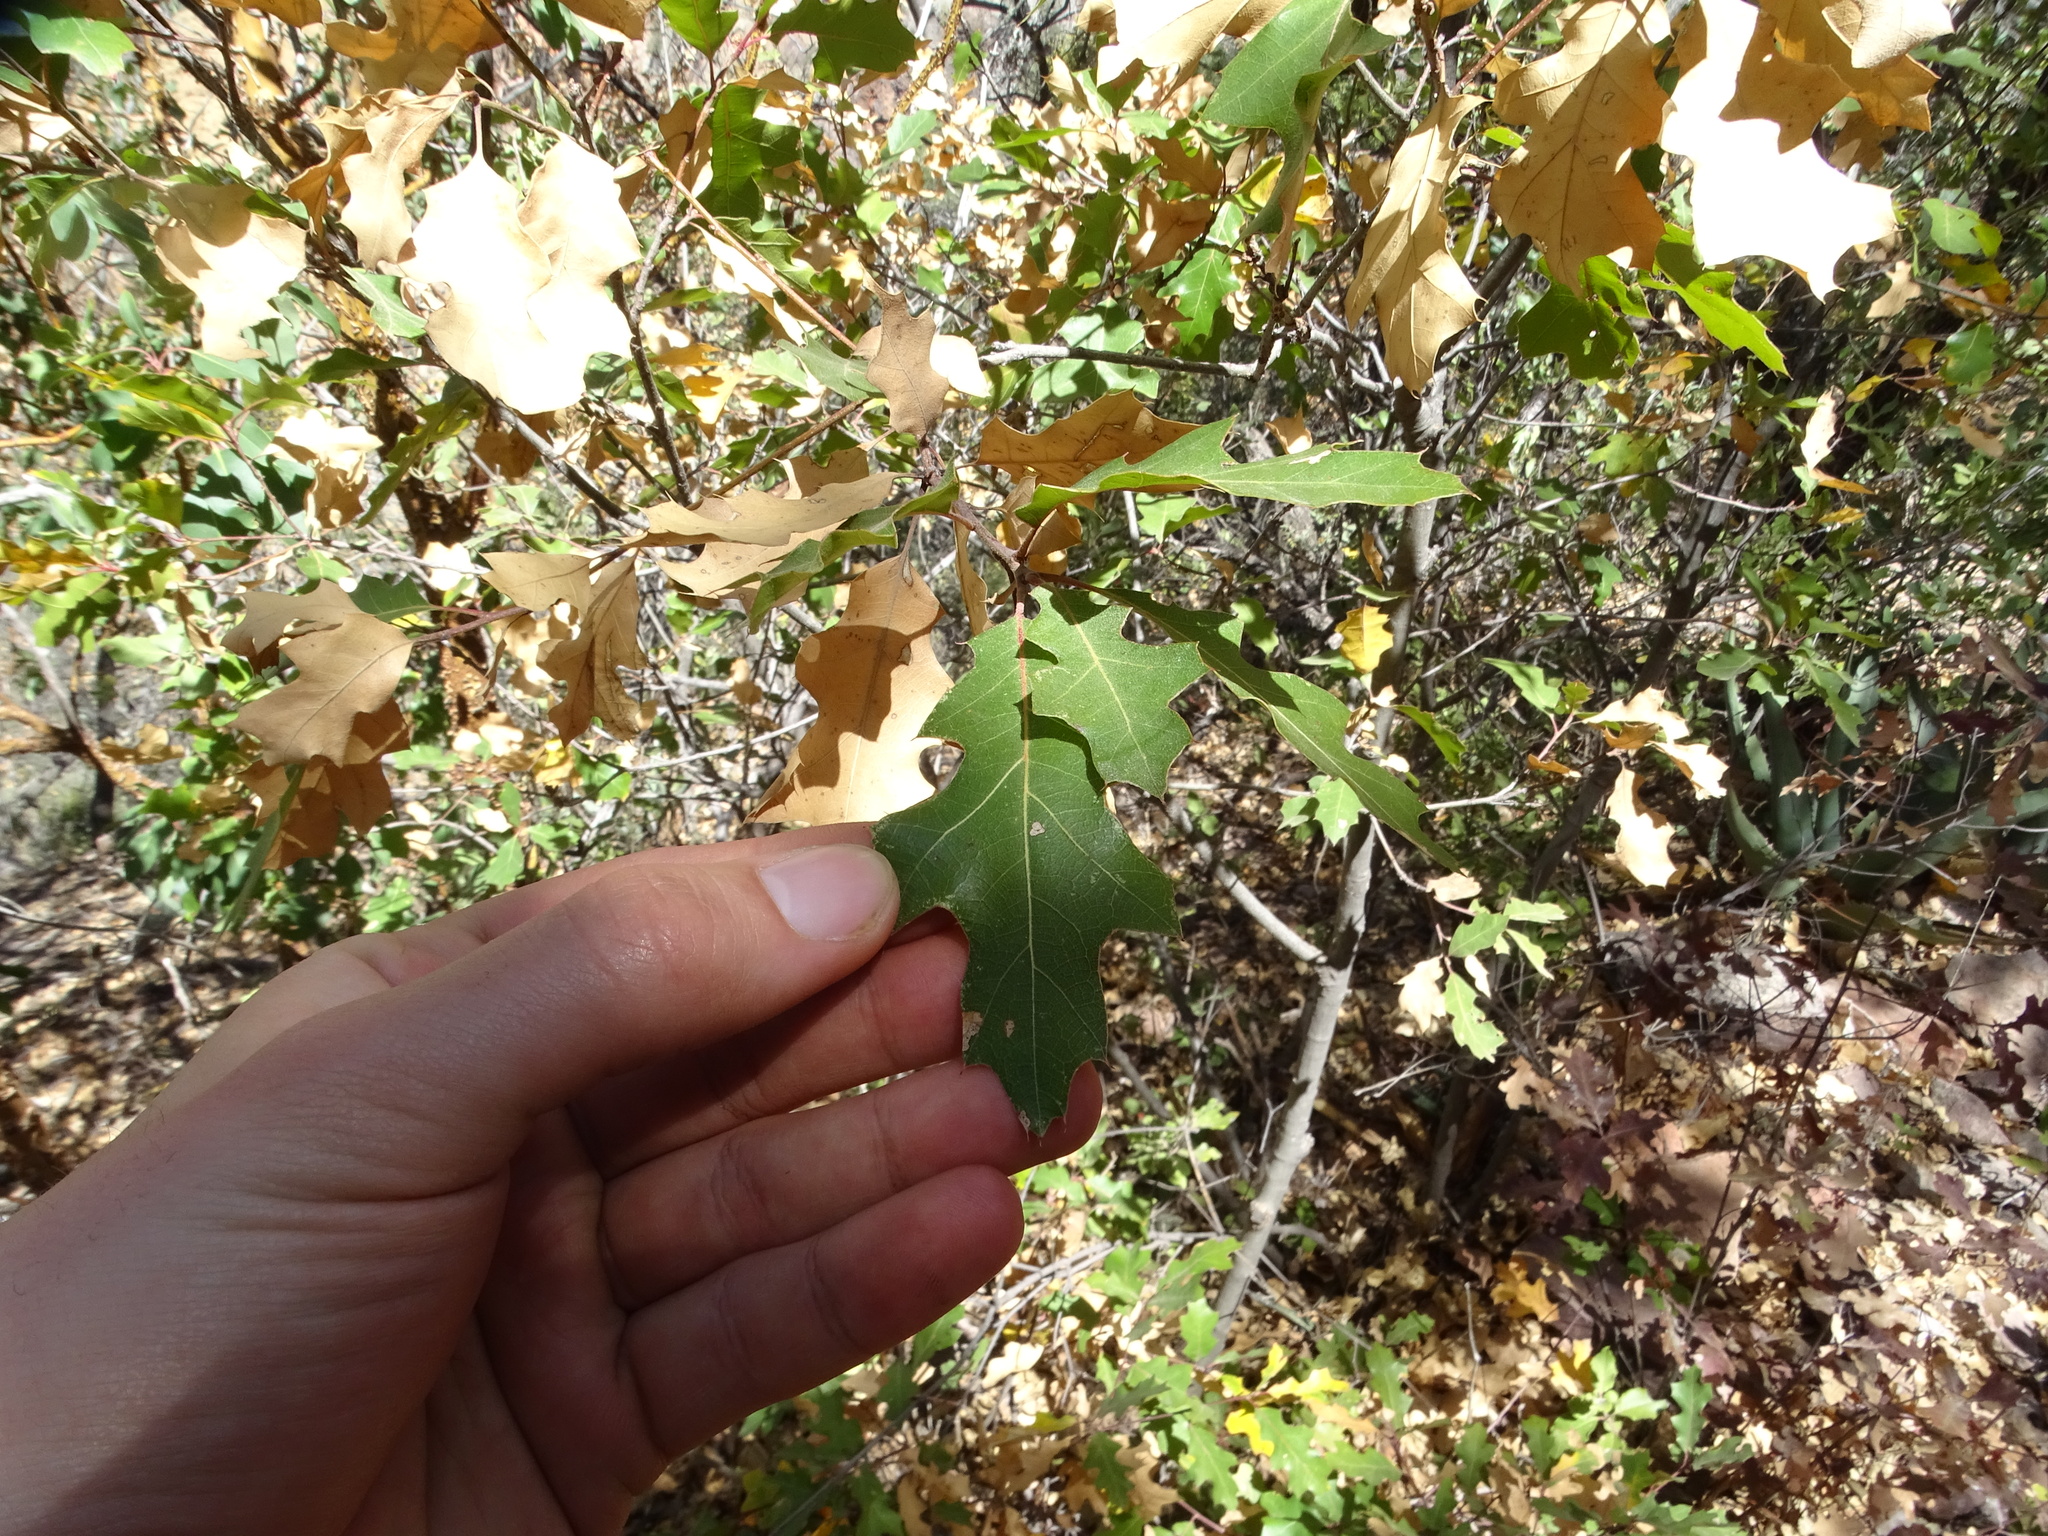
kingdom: Plantae
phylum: Tracheophyta
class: Magnoliopsida
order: Fagales
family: Fagaceae
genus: Quercus
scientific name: Quercus gravesii
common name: Chisos red oak
